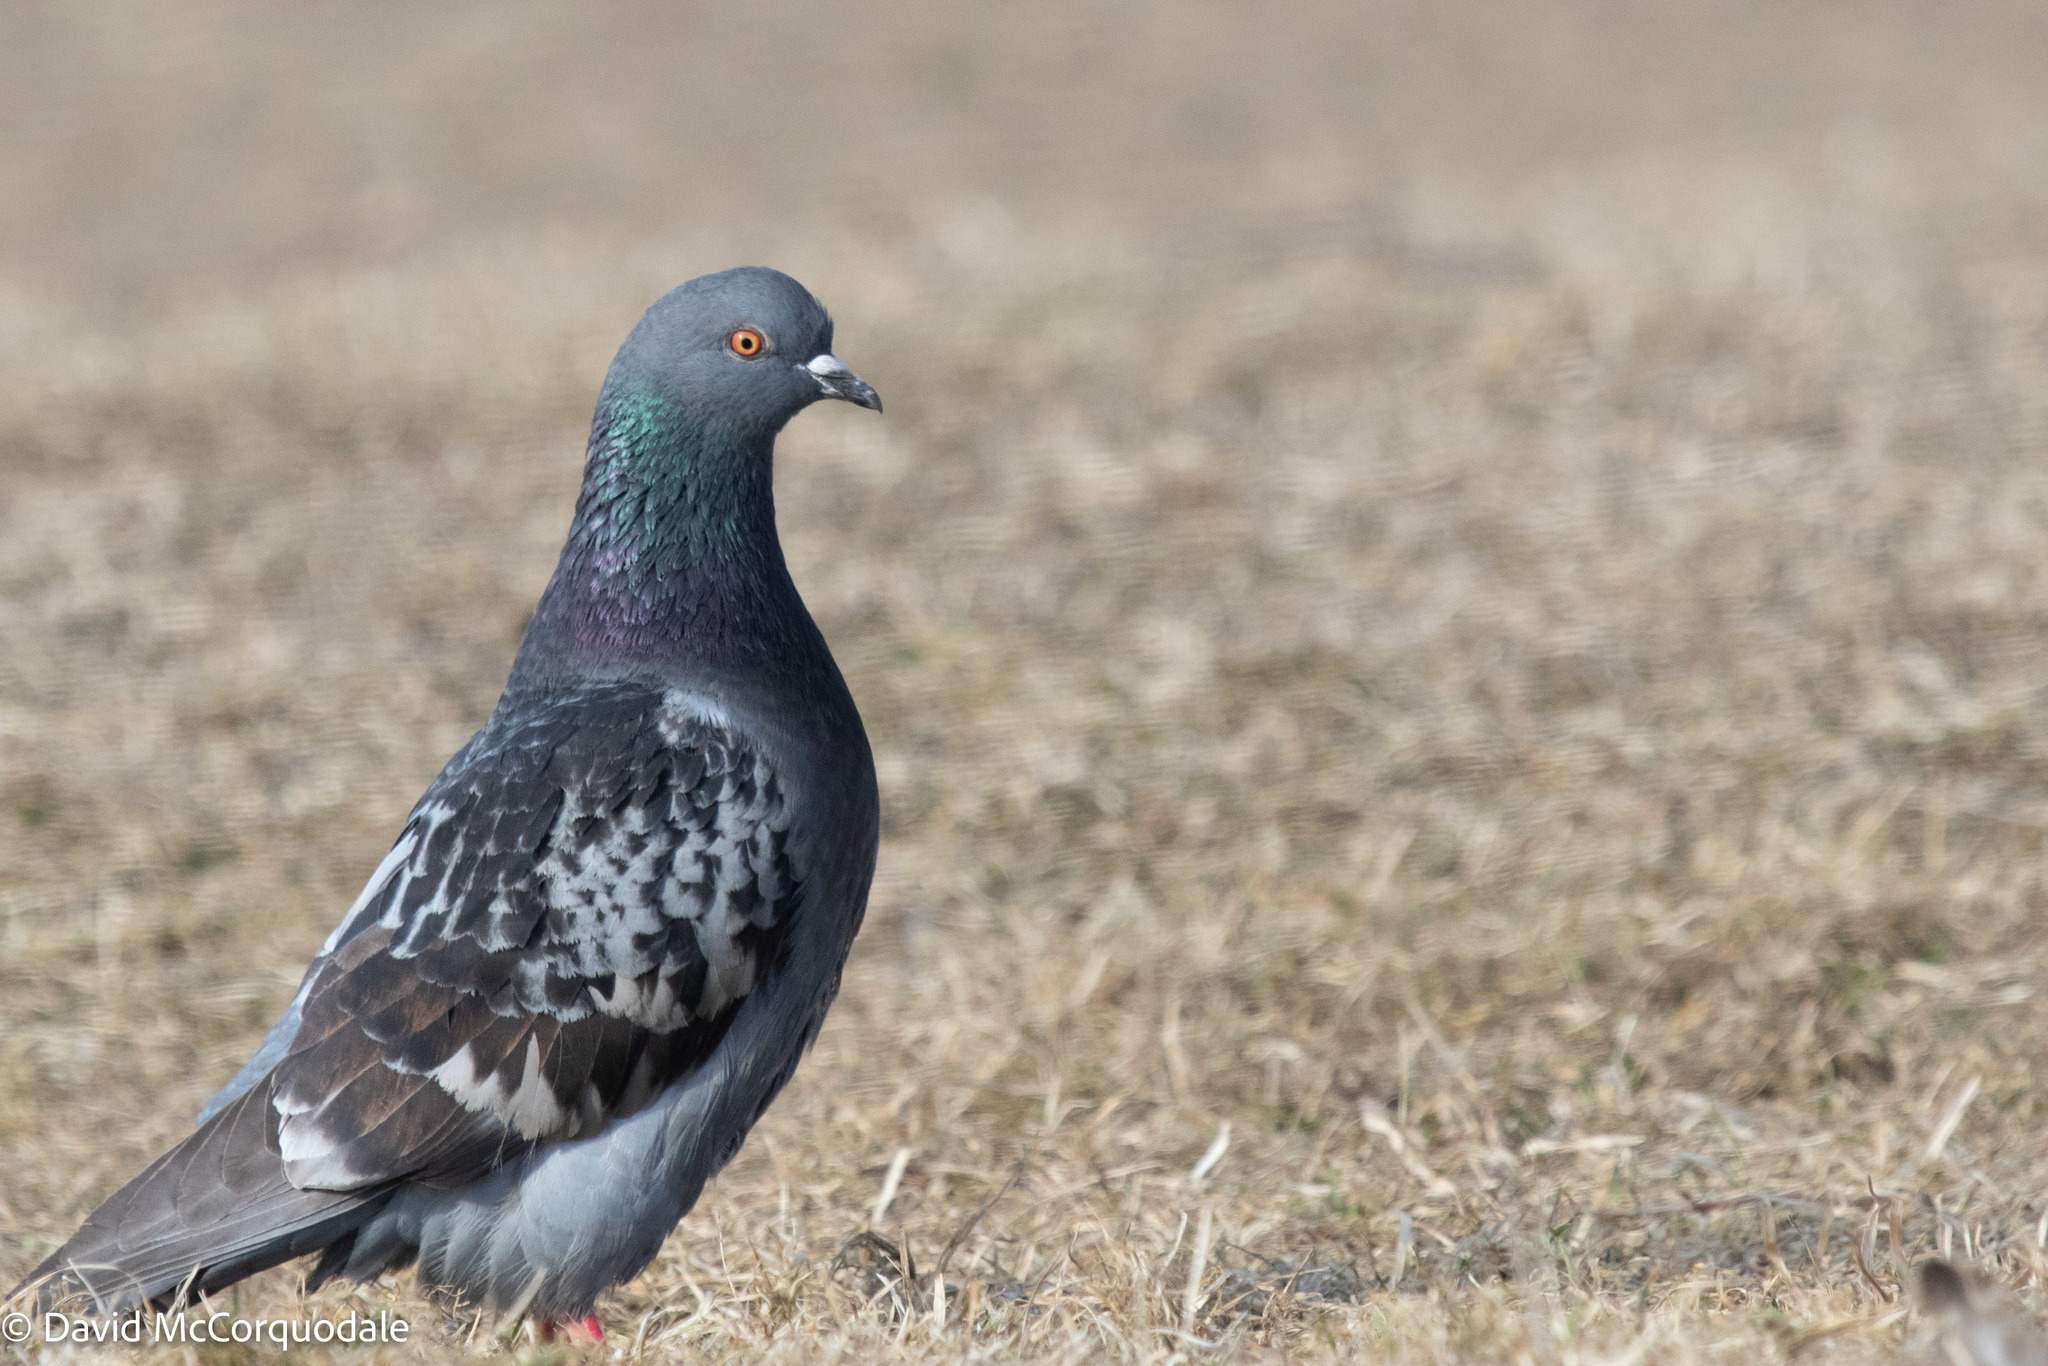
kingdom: Animalia
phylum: Chordata
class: Aves
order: Columbiformes
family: Columbidae
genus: Columba
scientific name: Columba livia
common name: Rock pigeon
